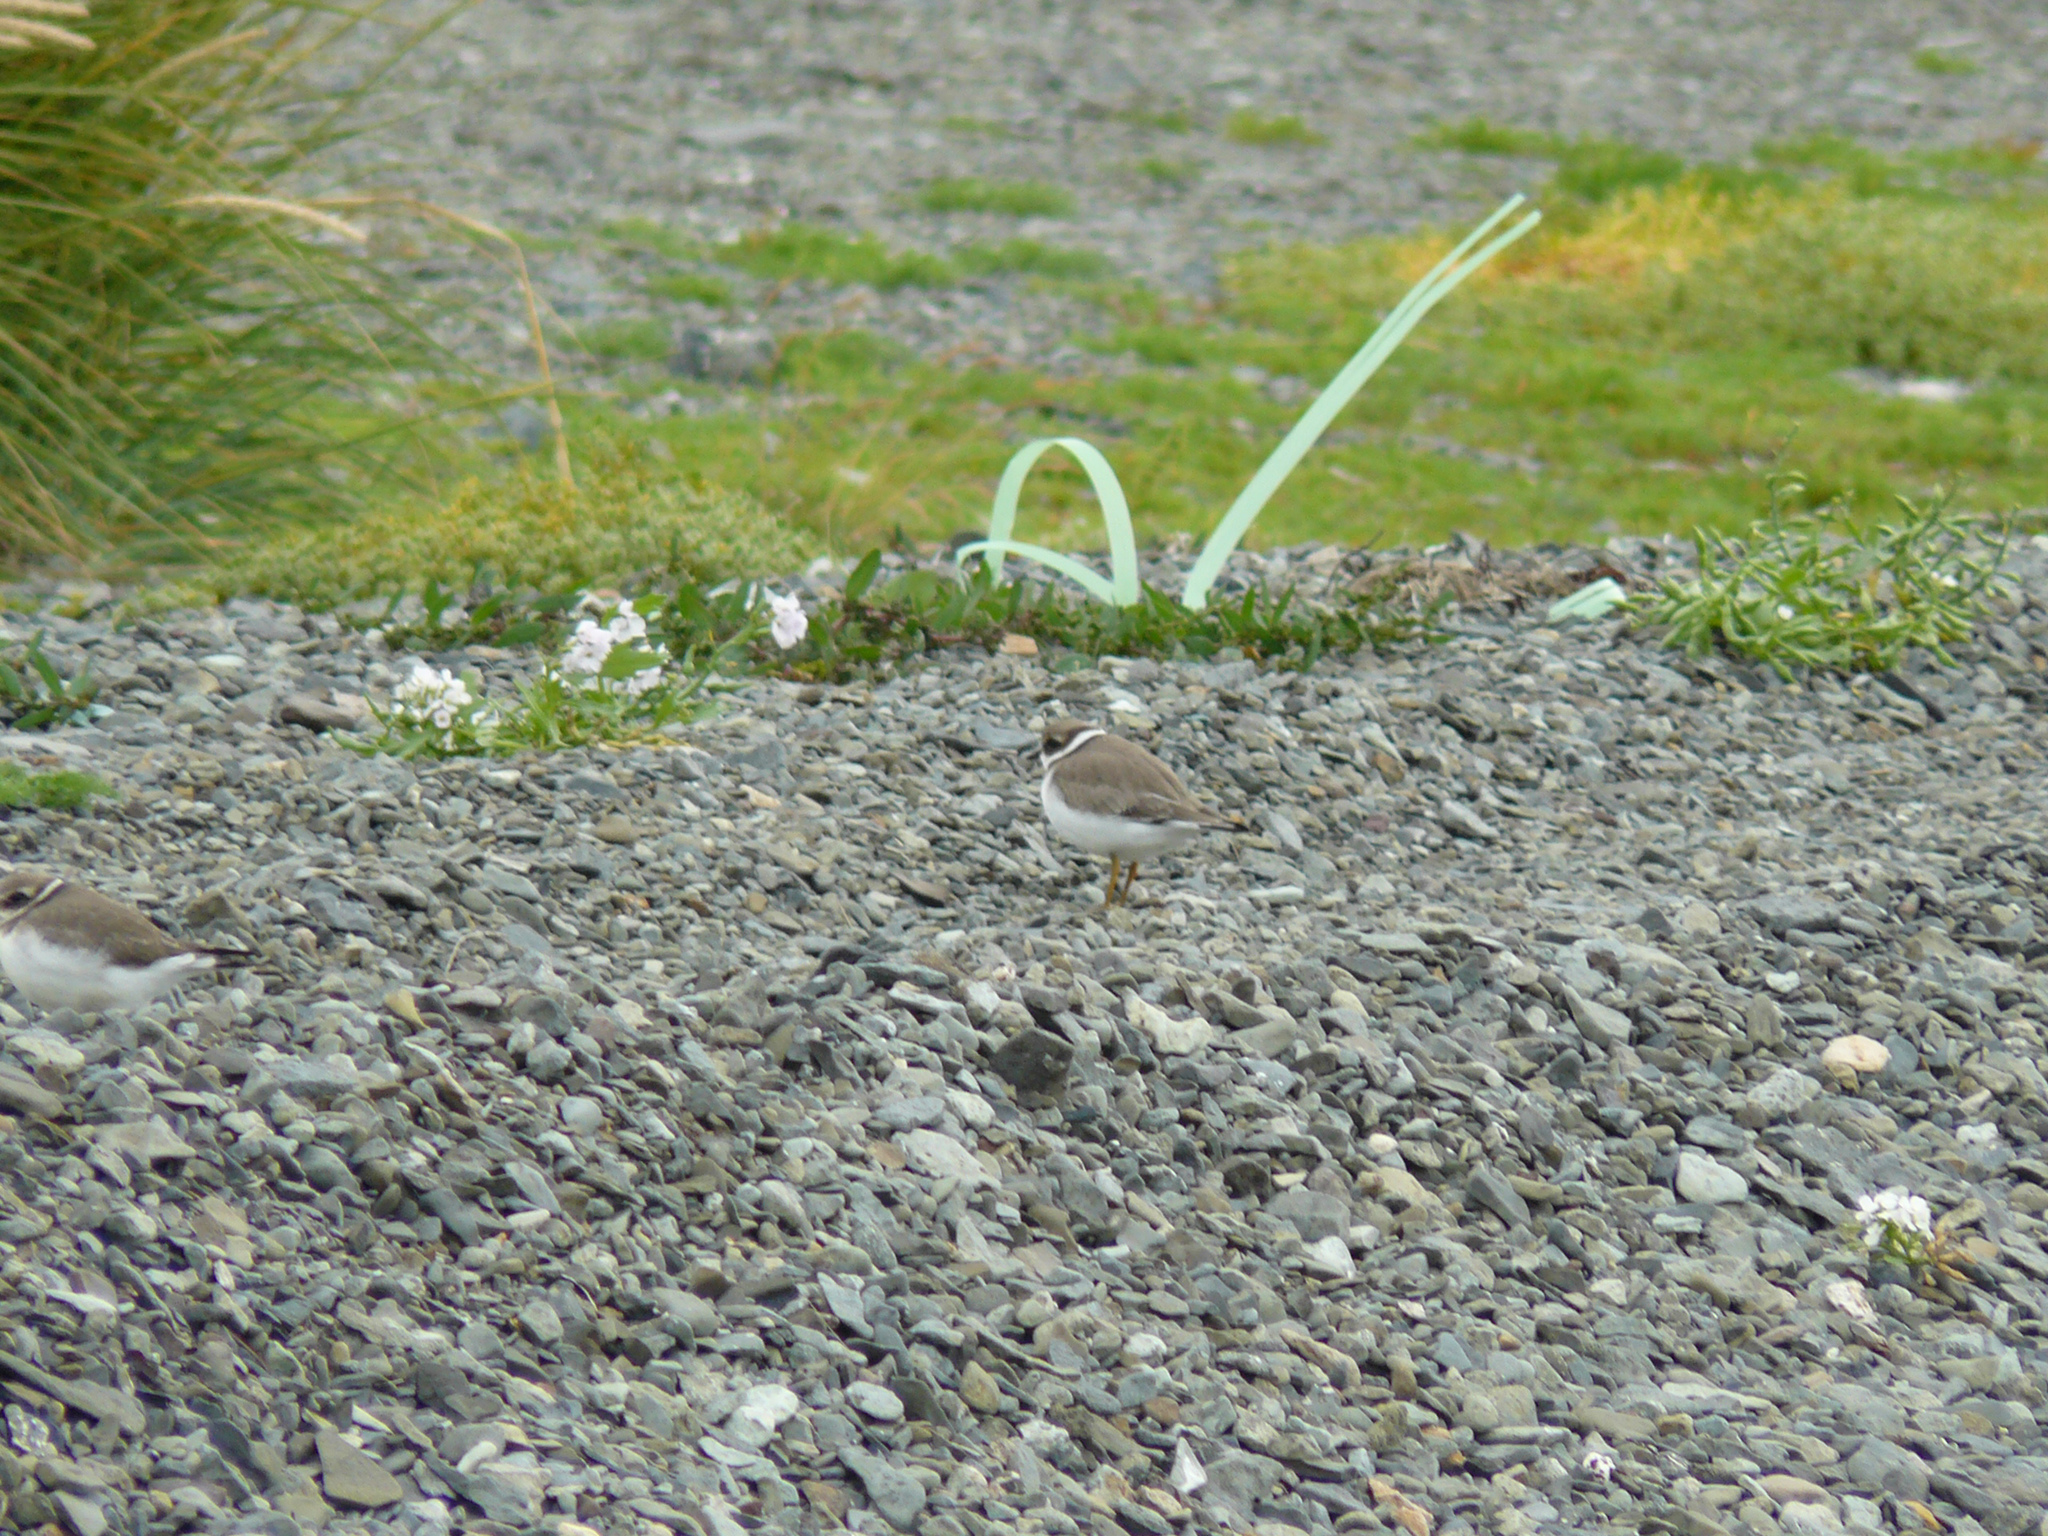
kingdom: Animalia
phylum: Chordata
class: Aves
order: Charadriiformes
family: Charadriidae
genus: Charadrius
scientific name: Charadrius hiaticula
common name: Common ringed plover
